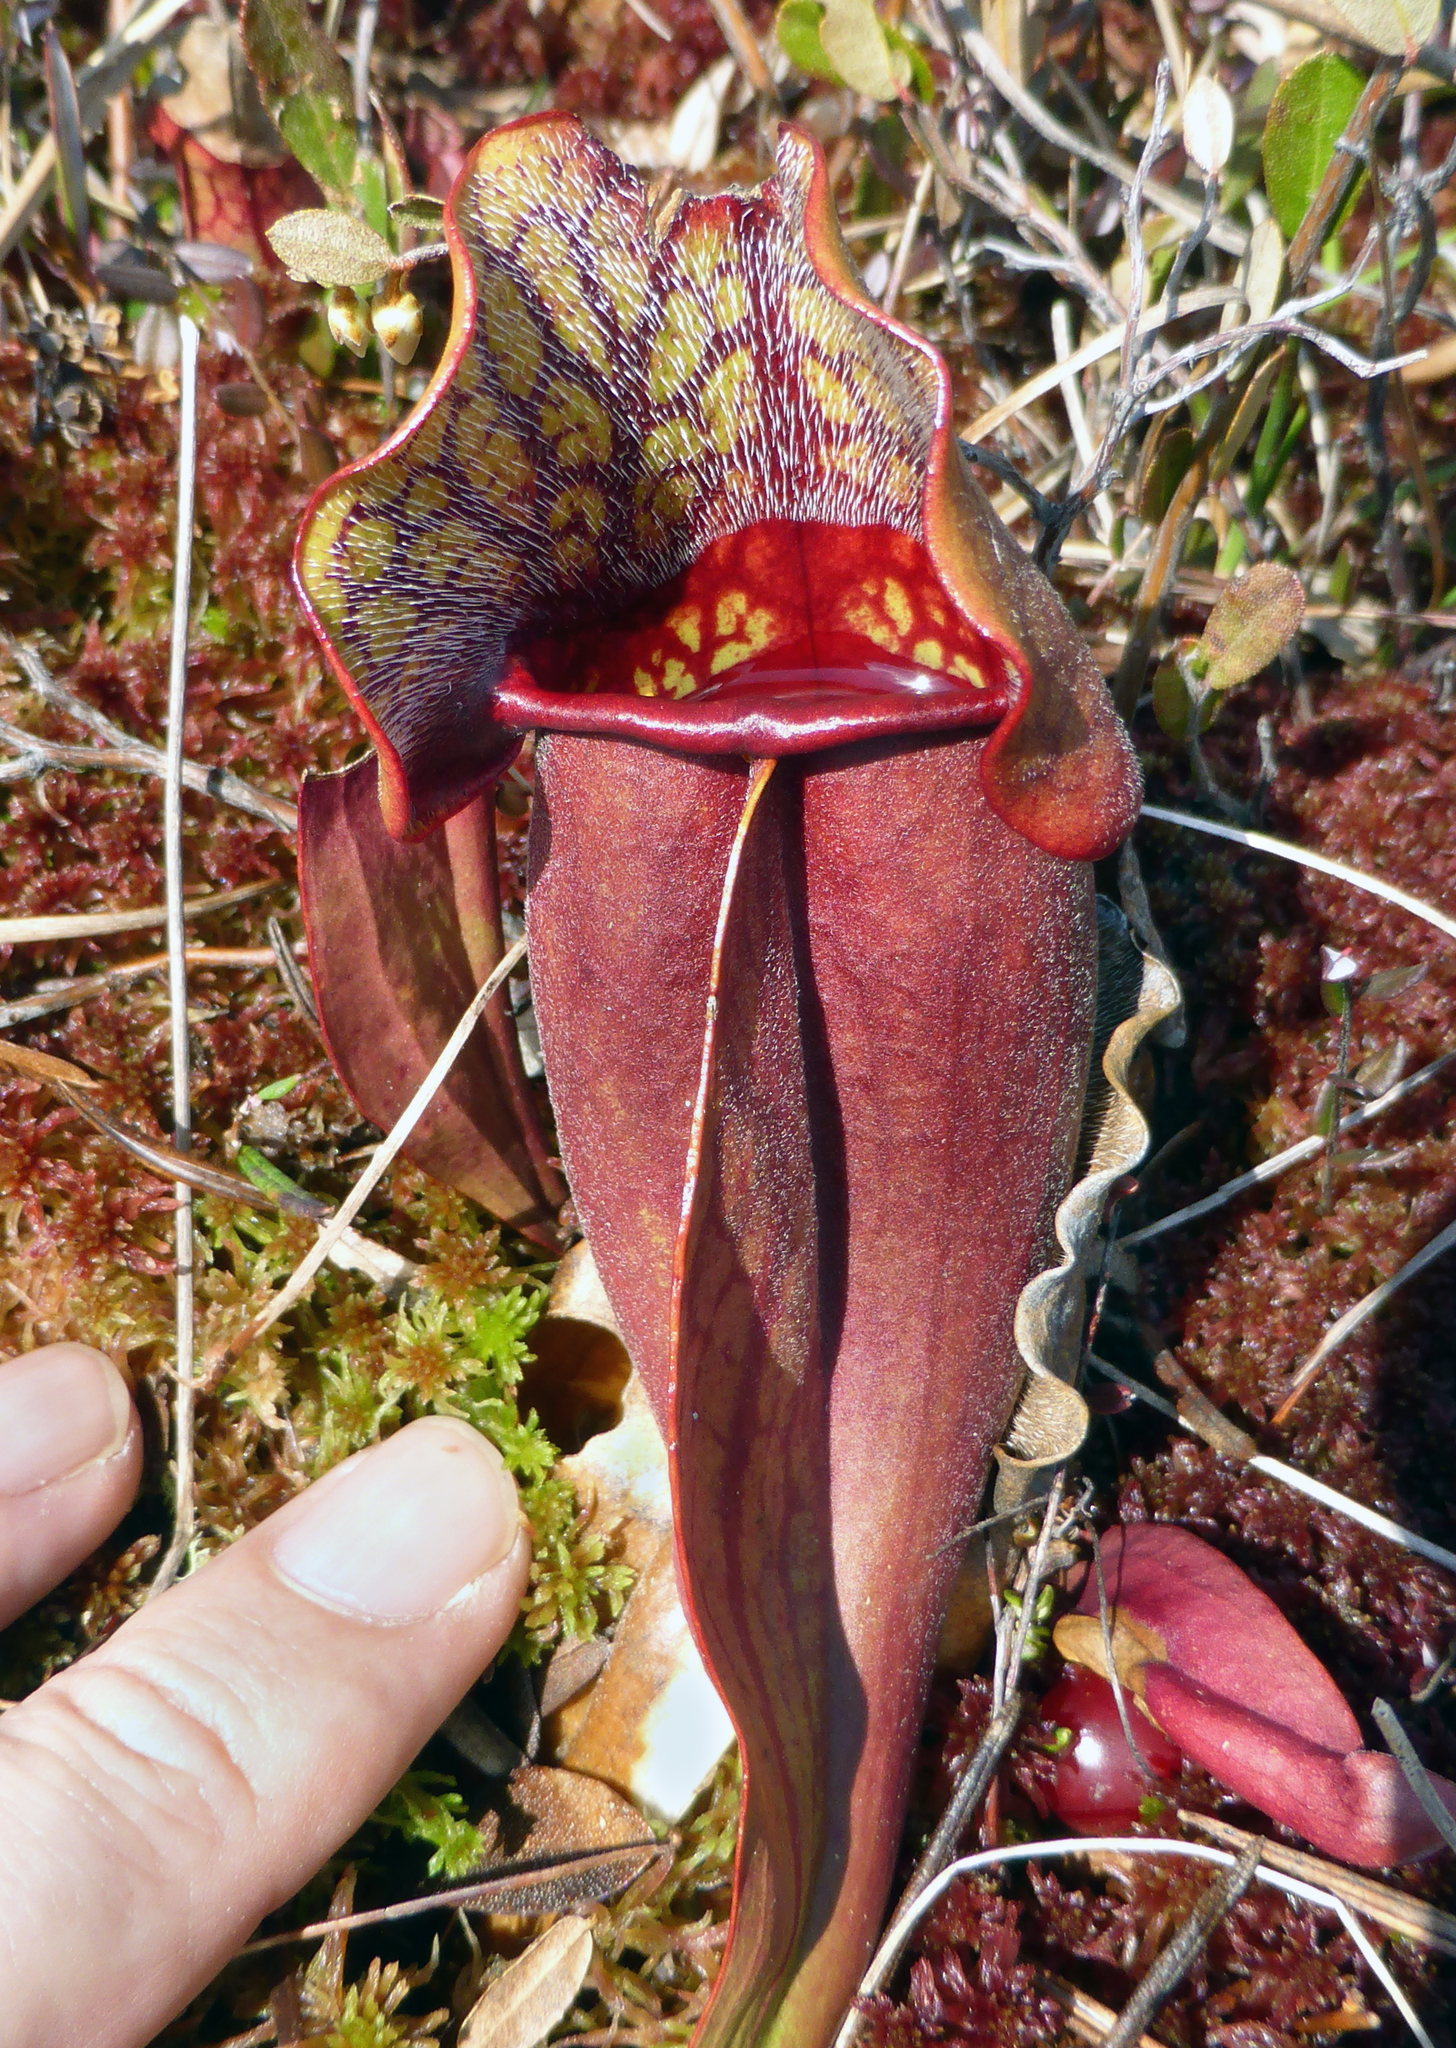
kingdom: Plantae
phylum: Tracheophyta
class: Magnoliopsida
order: Ericales
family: Sarraceniaceae
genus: Sarracenia
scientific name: Sarracenia purpurea
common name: Pitcherplant
